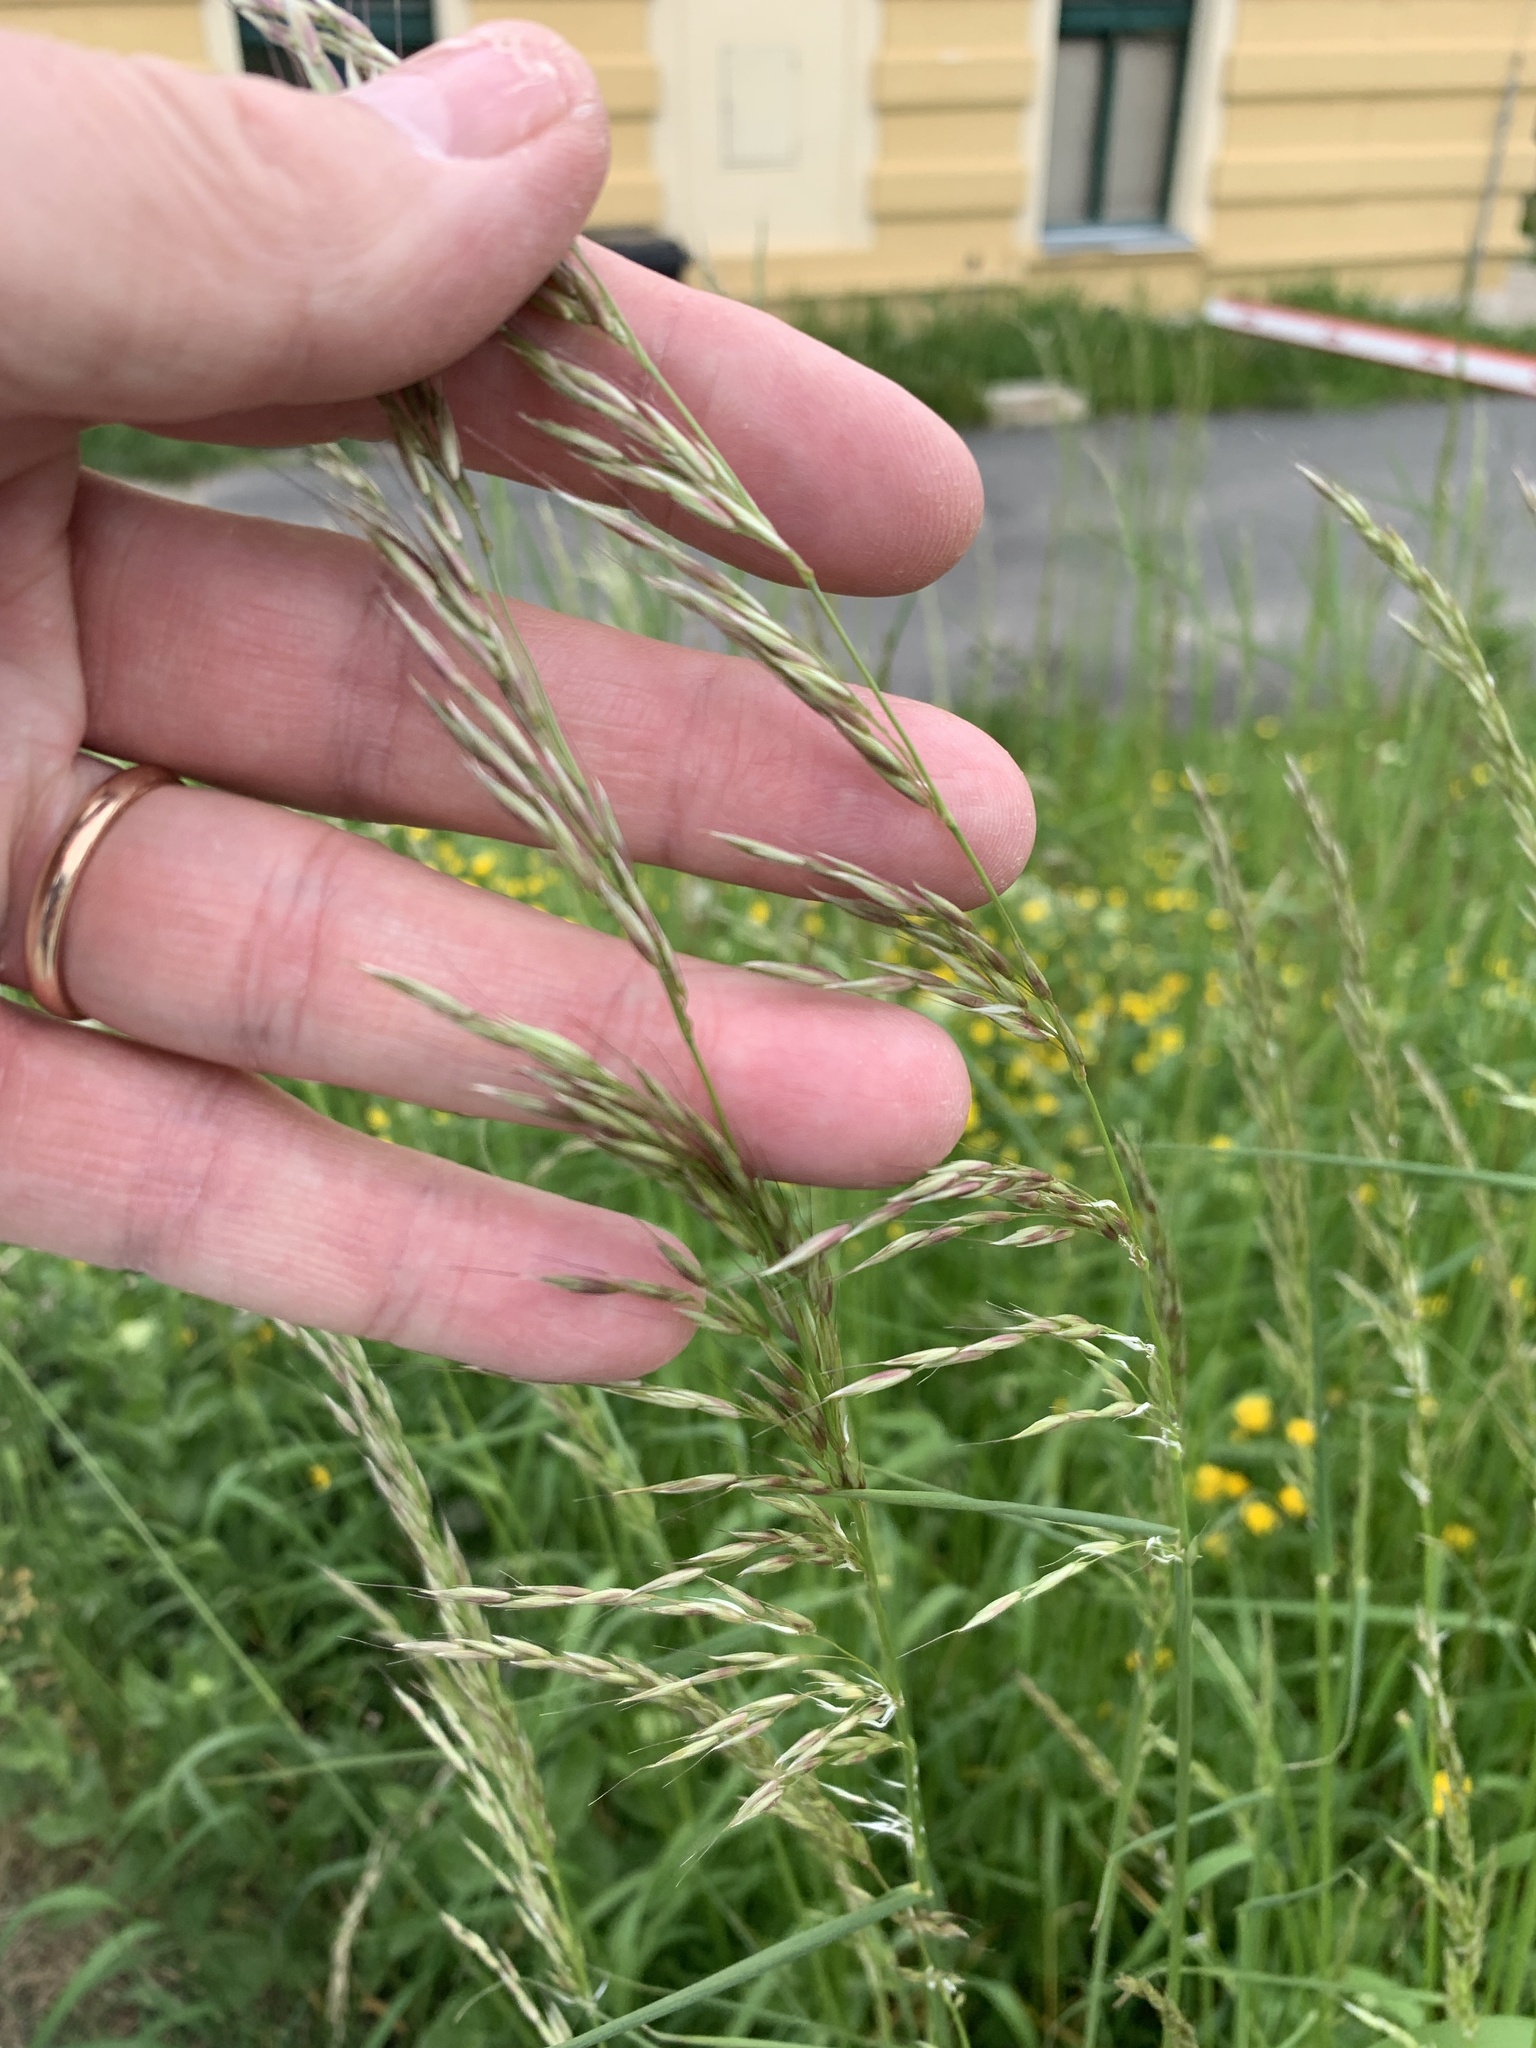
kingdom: Plantae
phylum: Tracheophyta
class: Liliopsida
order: Poales
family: Poaceae
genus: Arrhenatherum
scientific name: Arrhenatherum elatius
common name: Tall oatgrass
